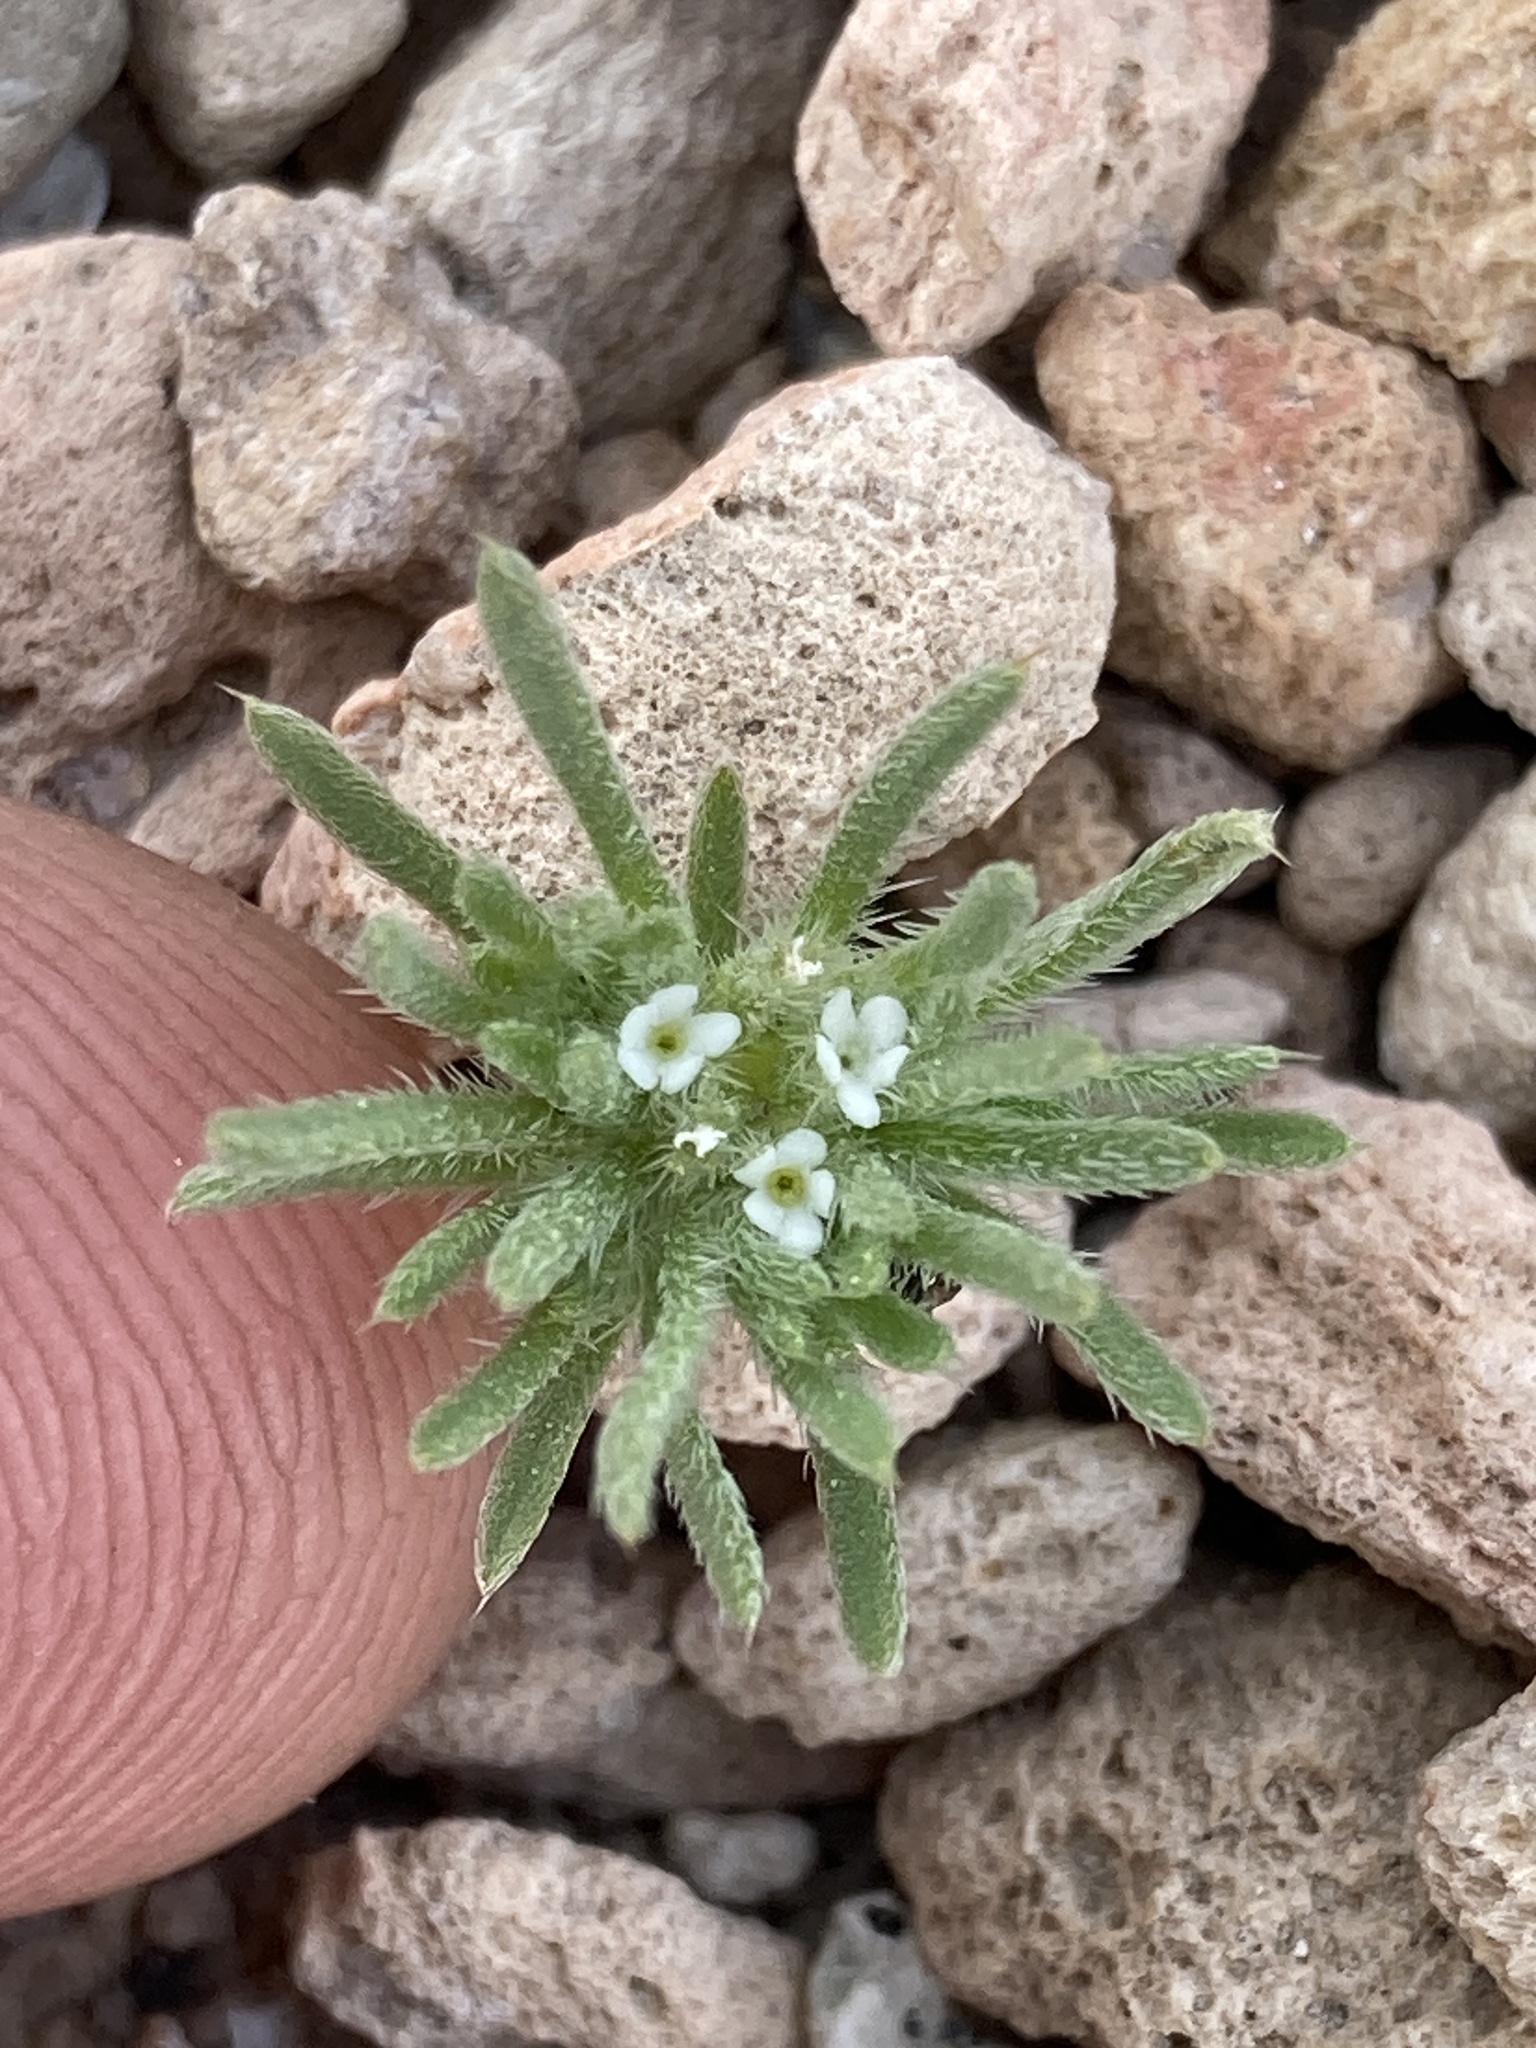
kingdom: Plantae
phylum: Tracheophyta
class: Magnoliopsida
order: Boraginales
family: Boraginaceae
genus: Greeneocharis
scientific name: Greeneocharis circumscissa
